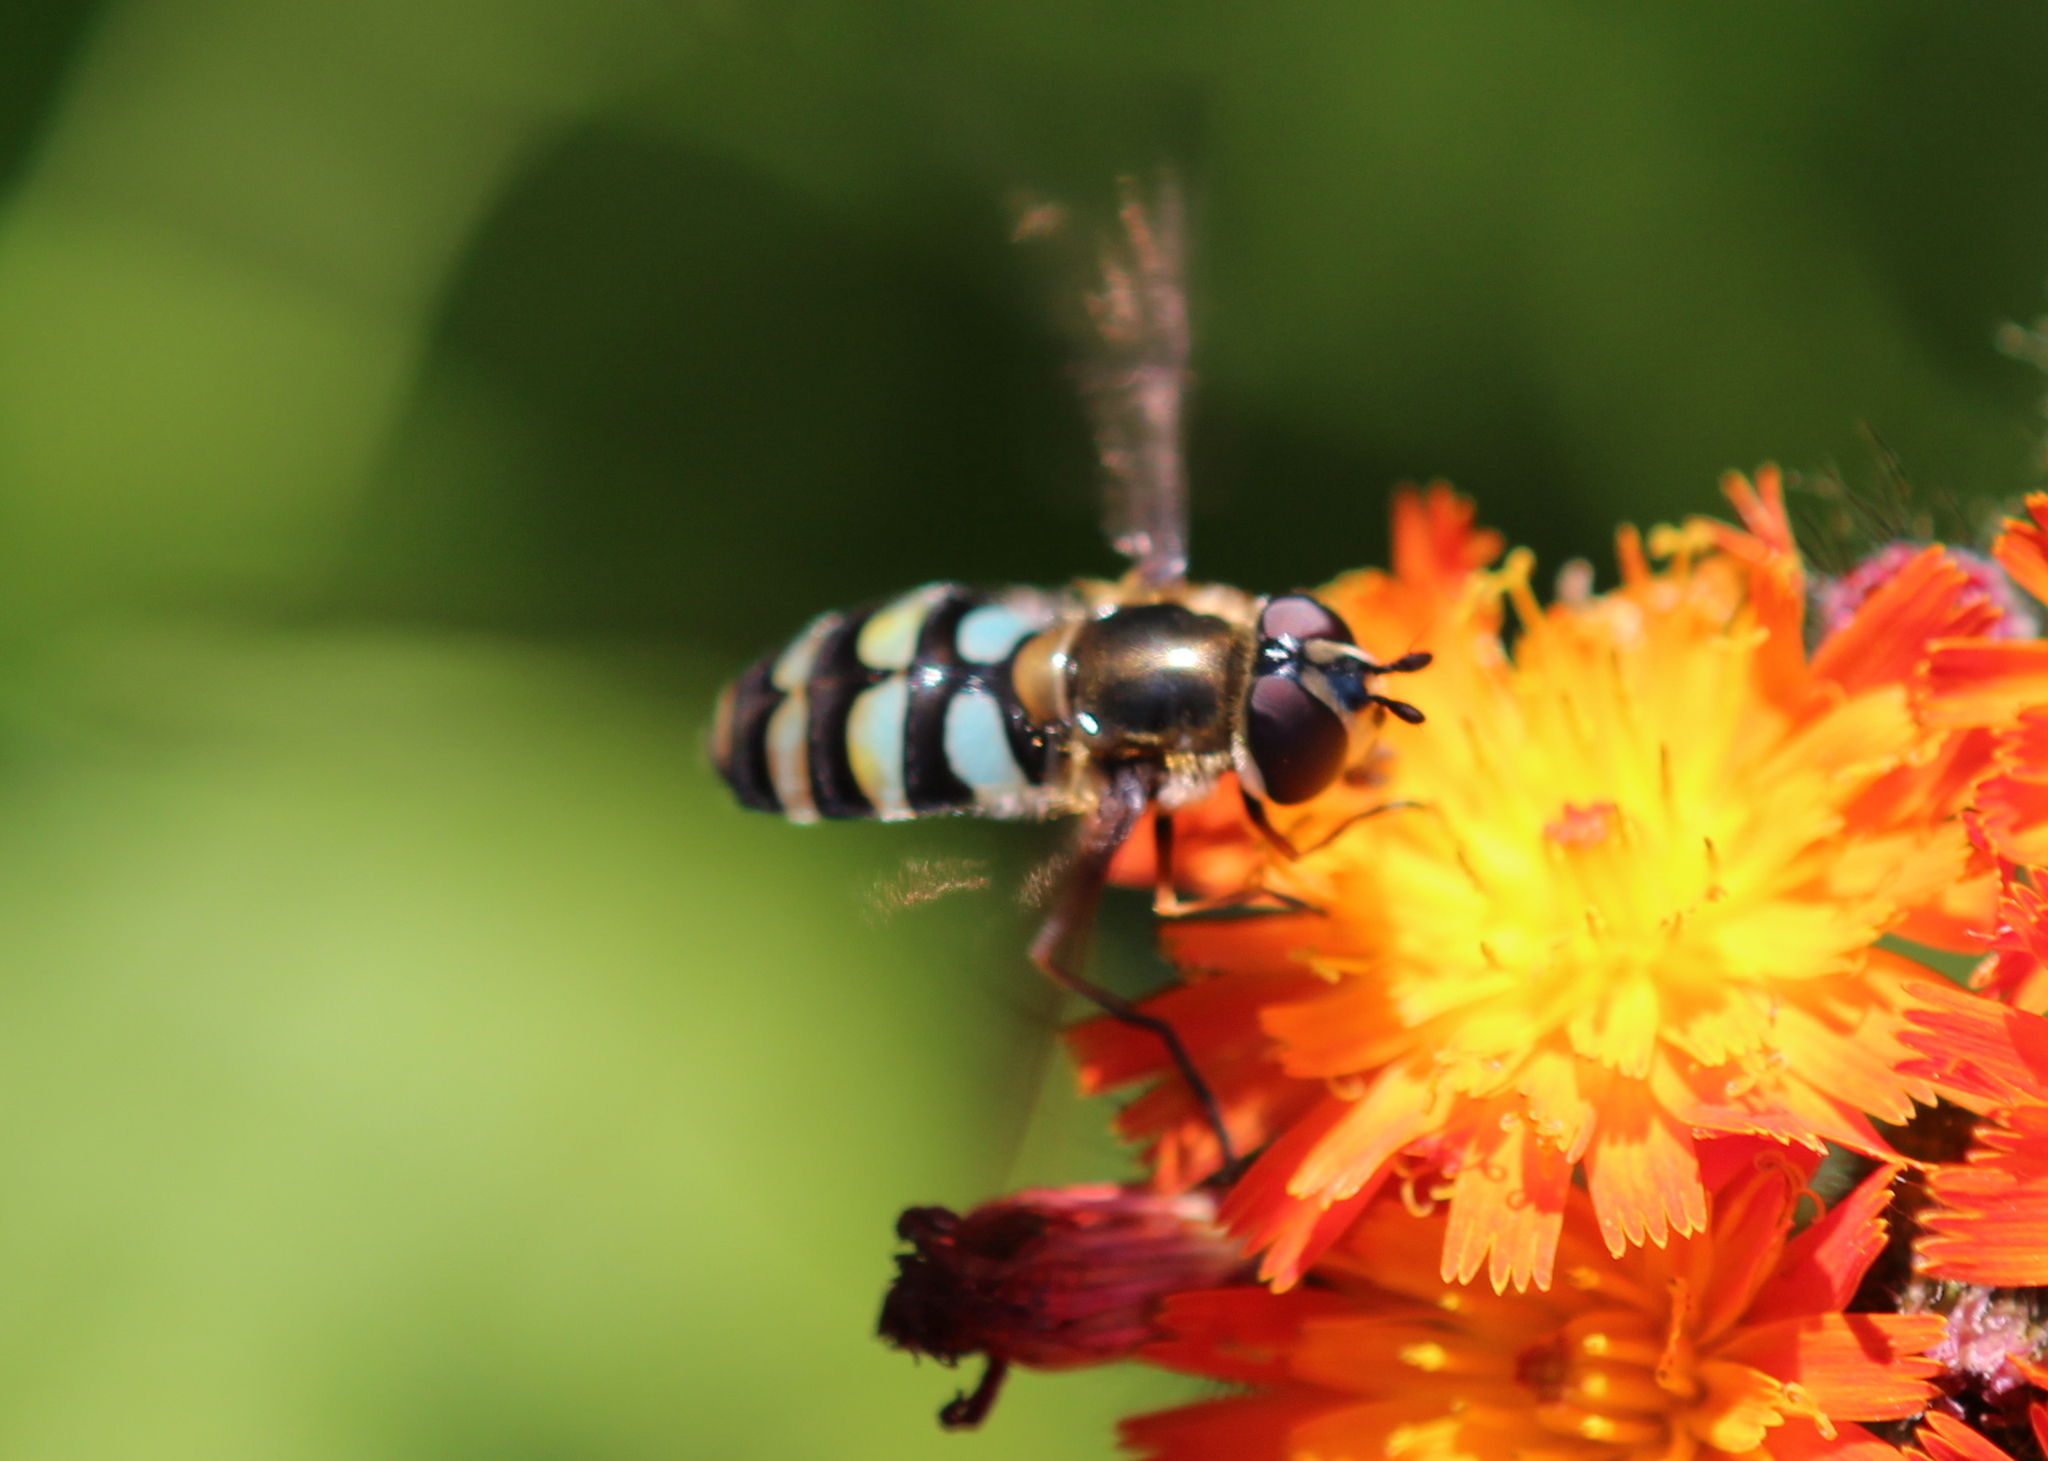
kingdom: Animalia
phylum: Arthropoda
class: Insecta
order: Diptera
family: Syrphidae
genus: Megasyrphus
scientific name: Megasyrphus laxus
